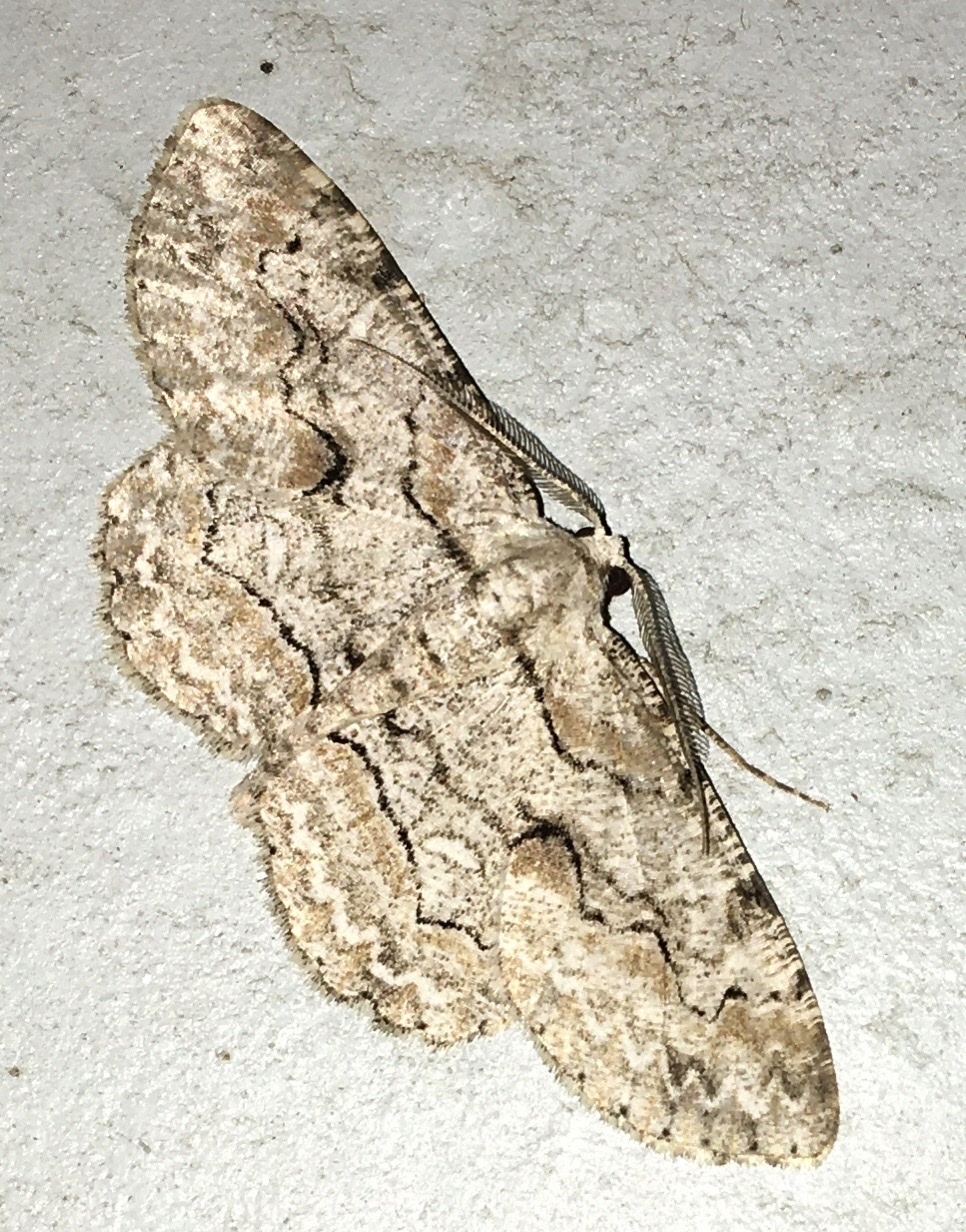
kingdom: Animalia
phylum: Arthropoda
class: Insecta
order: Lepidoptera
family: Geometridae
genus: Iridopsis
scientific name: Iridopsis defectaria
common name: Brown-shaded gray
